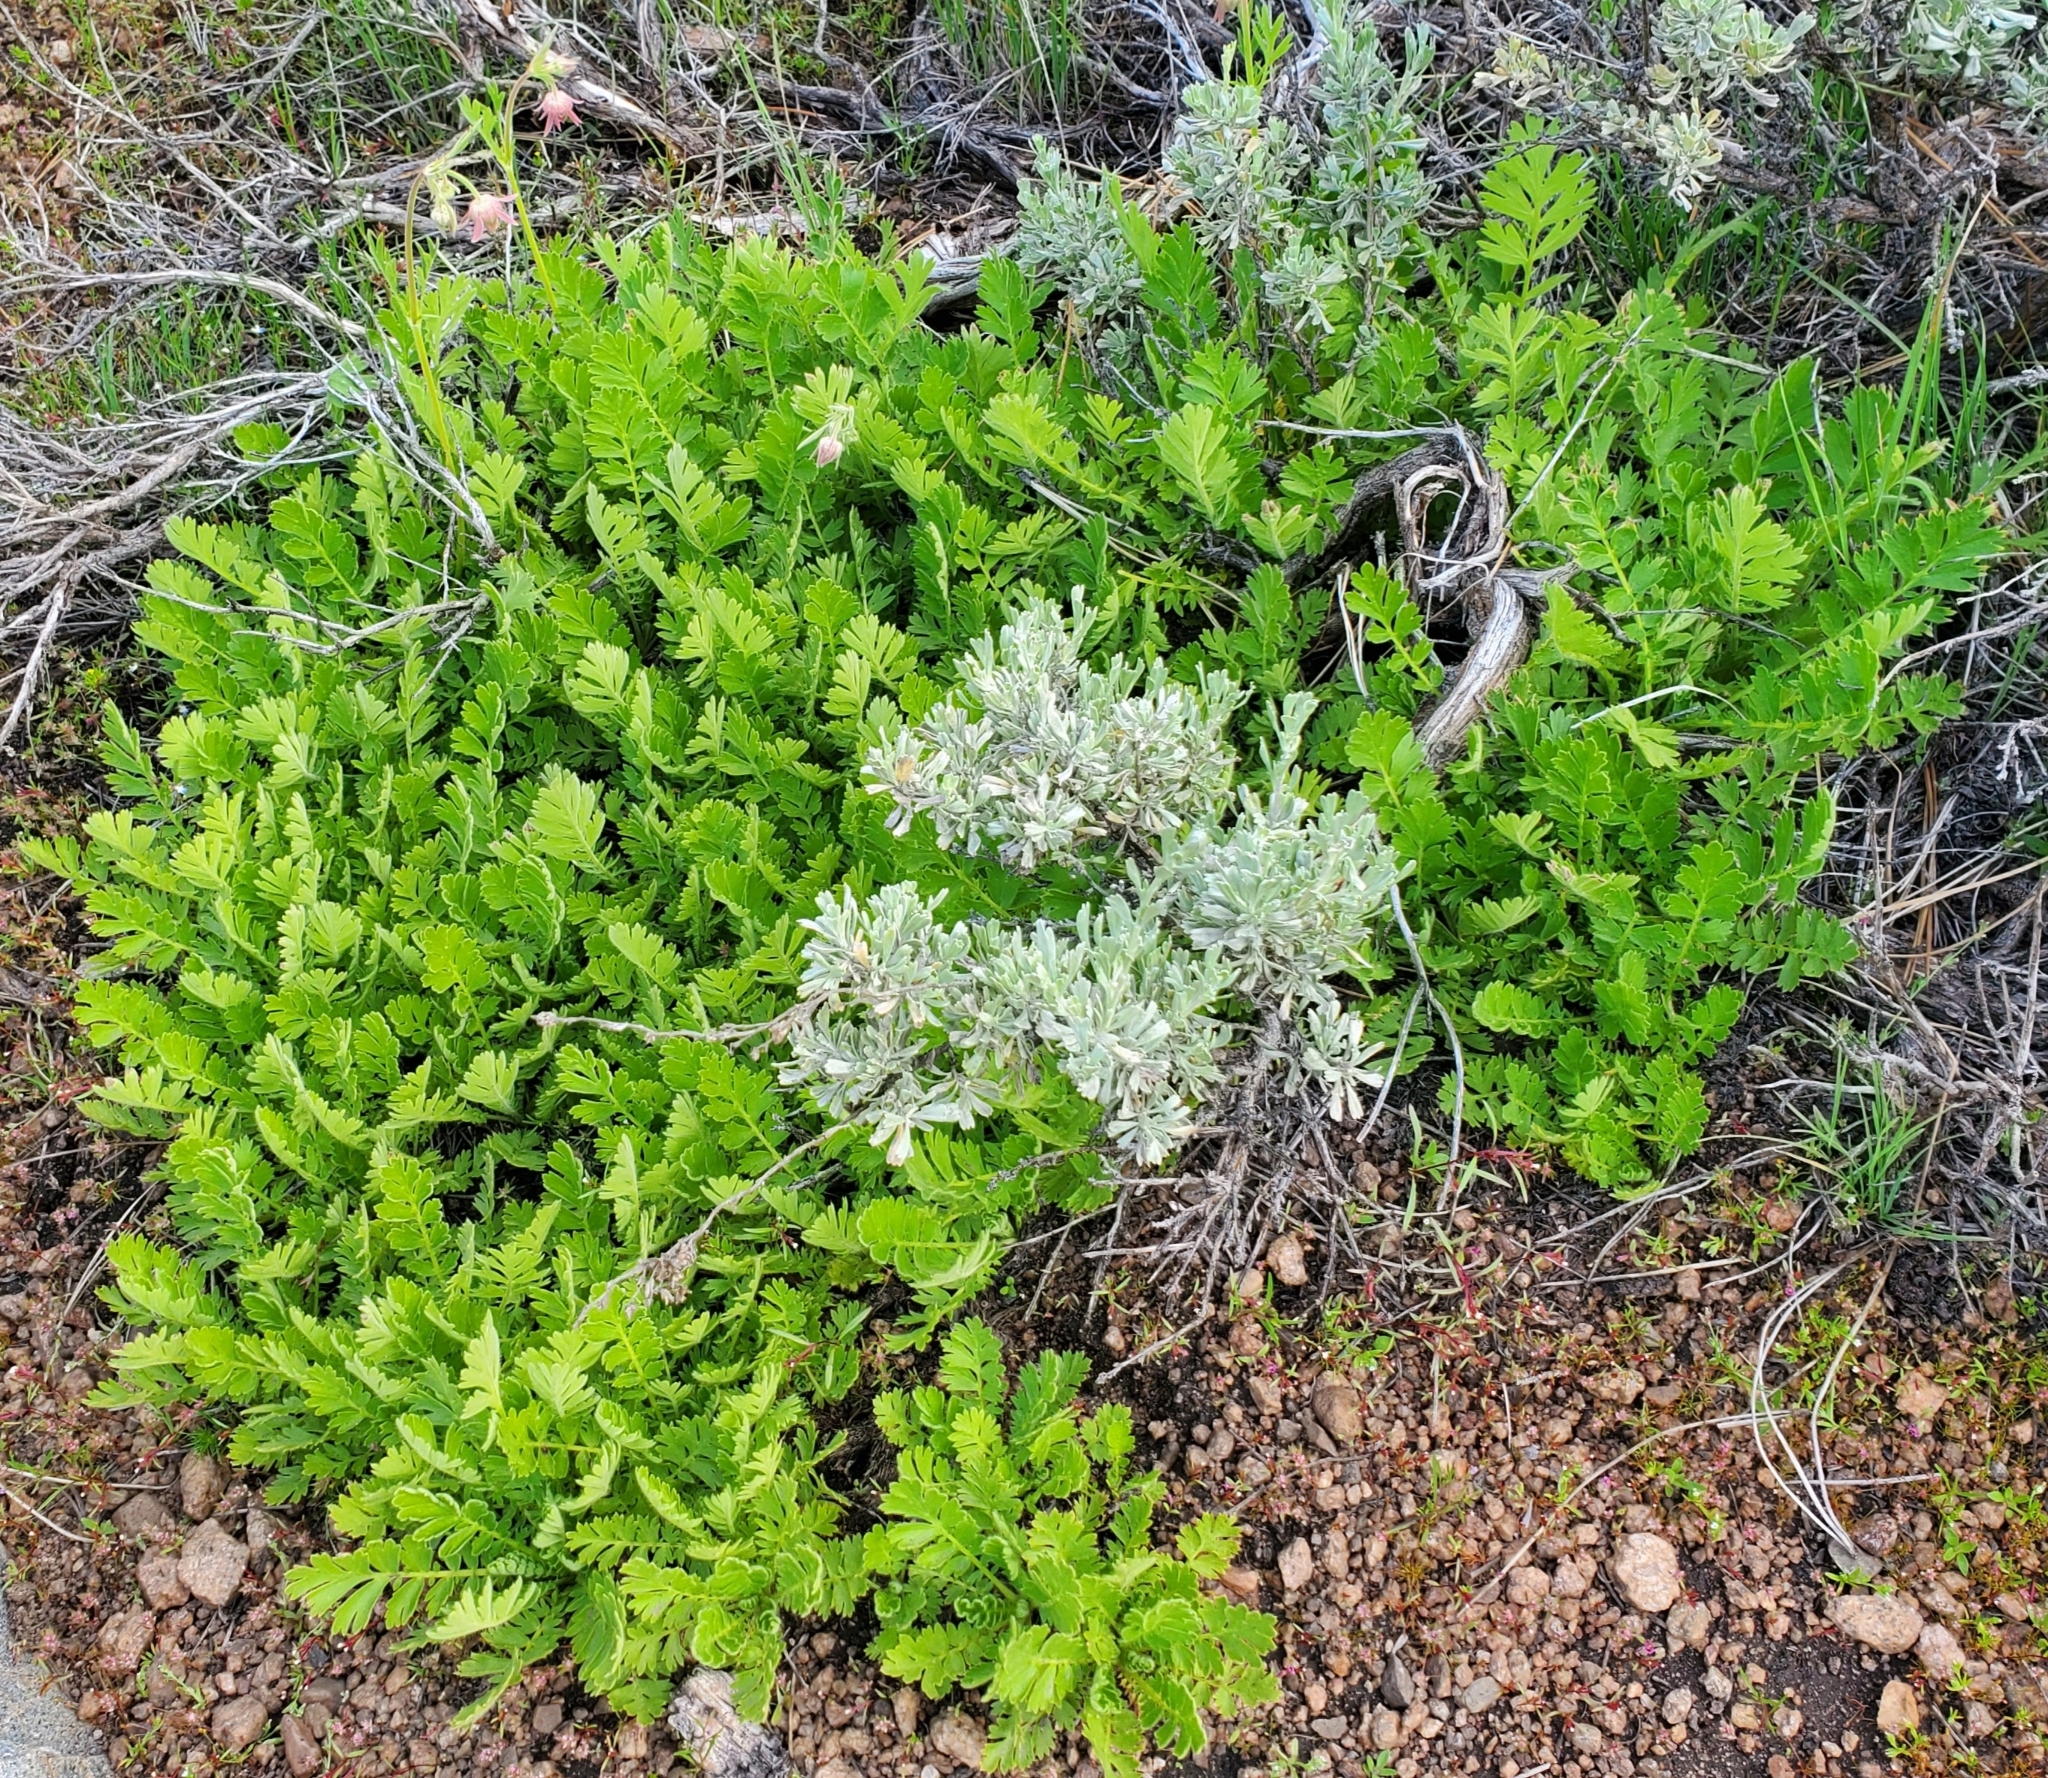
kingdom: Plantae
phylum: Tracheophyta
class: Magnoliopsida
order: Rosales
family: Rosaceae
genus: Geum
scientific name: Geum triflorum
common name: Old man's whiskers
